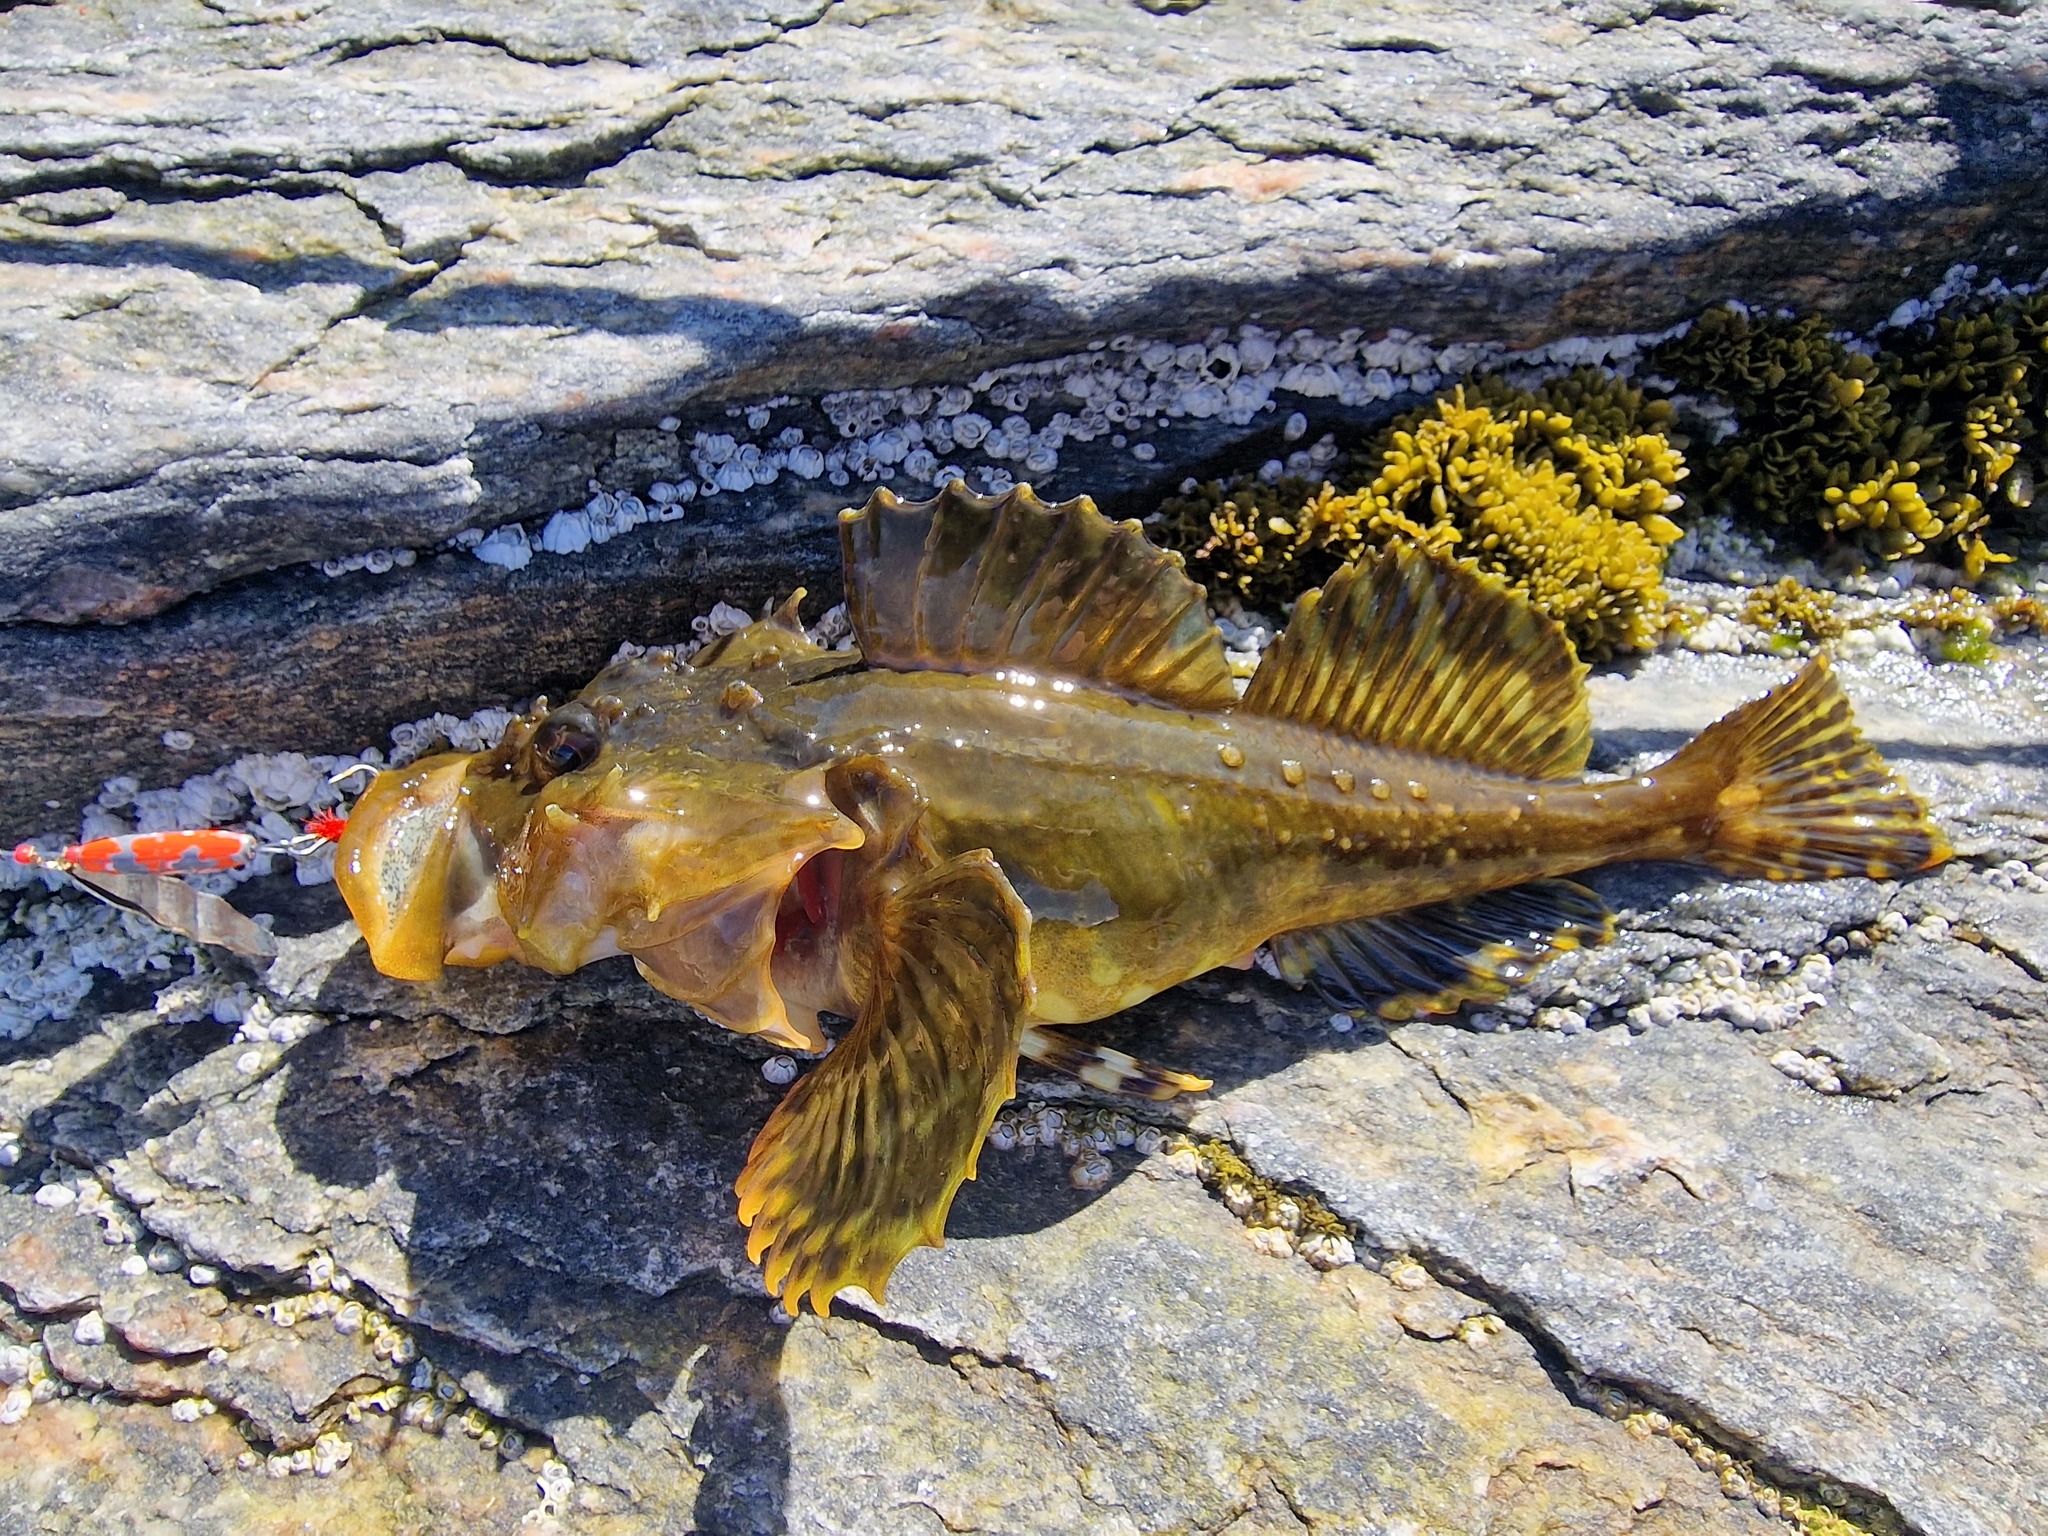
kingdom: Animalia
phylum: Chordata
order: Scorpaeniformes
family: Cottidae
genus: Myoxocephalus
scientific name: Myoxocephalus scorpius
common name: Shorthorn sculpin
